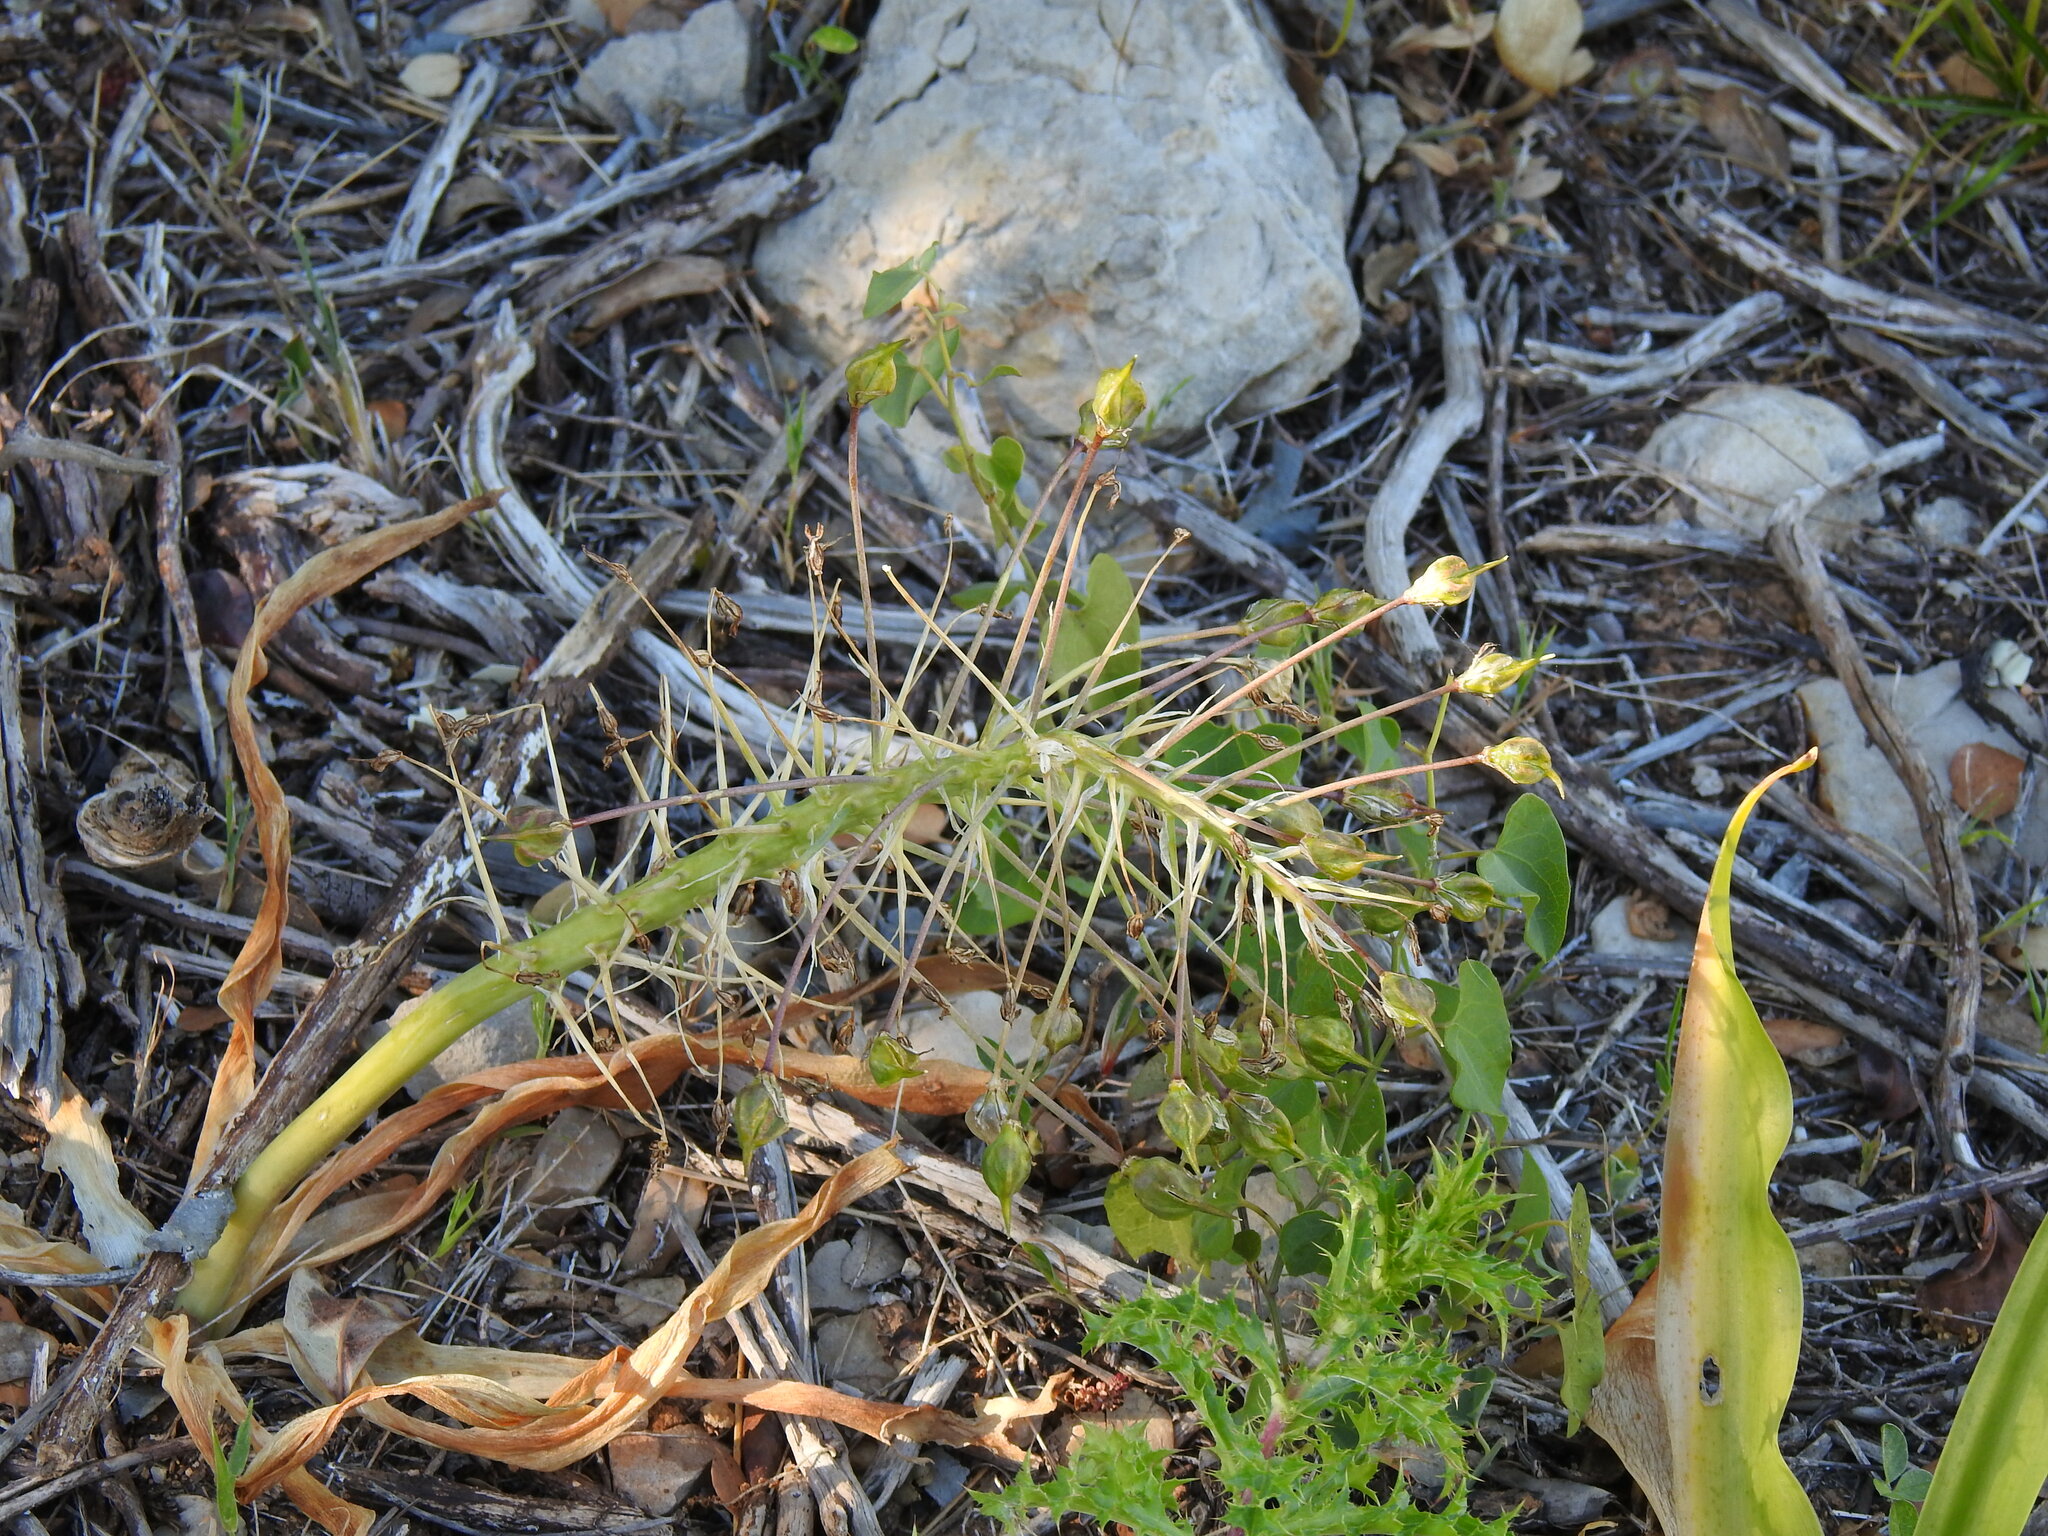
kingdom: Plantae
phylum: Tracheophyta
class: Liliopsida
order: Asparagales
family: Asparagaceae
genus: Scilla
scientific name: Scilla peruviana
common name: Portuguese squill
